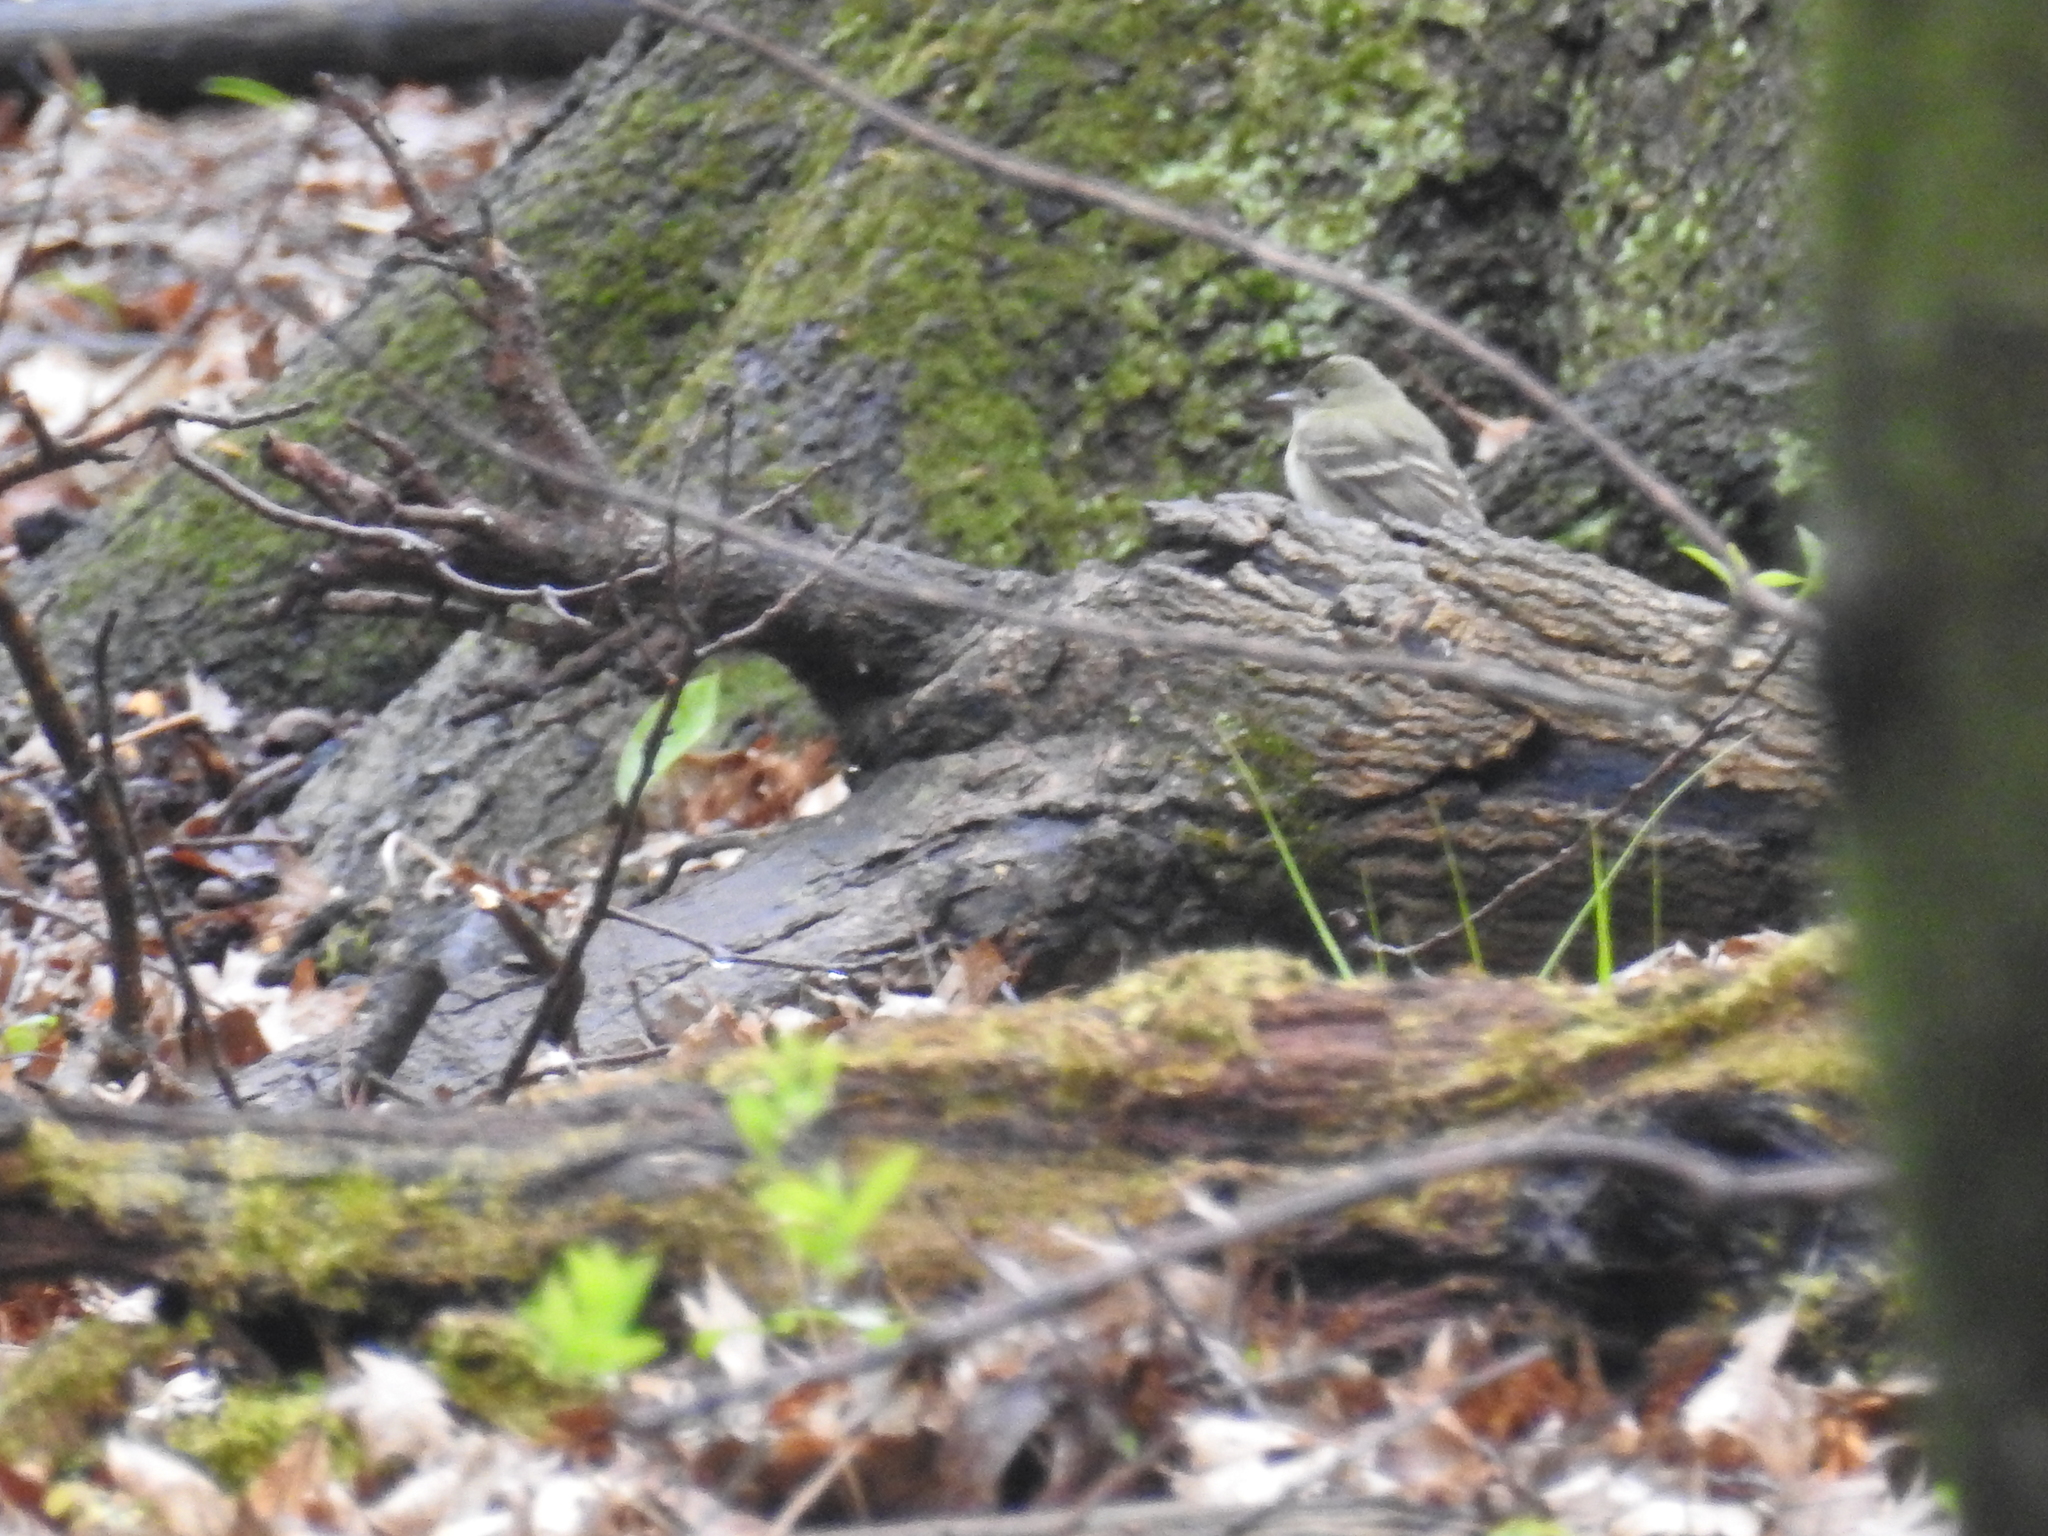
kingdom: Animalia
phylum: Chordata
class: Aves
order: Passeriformes
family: Tyrannidae
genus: Empidonax
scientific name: Empidonax virescens
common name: Acadian flycatcher
